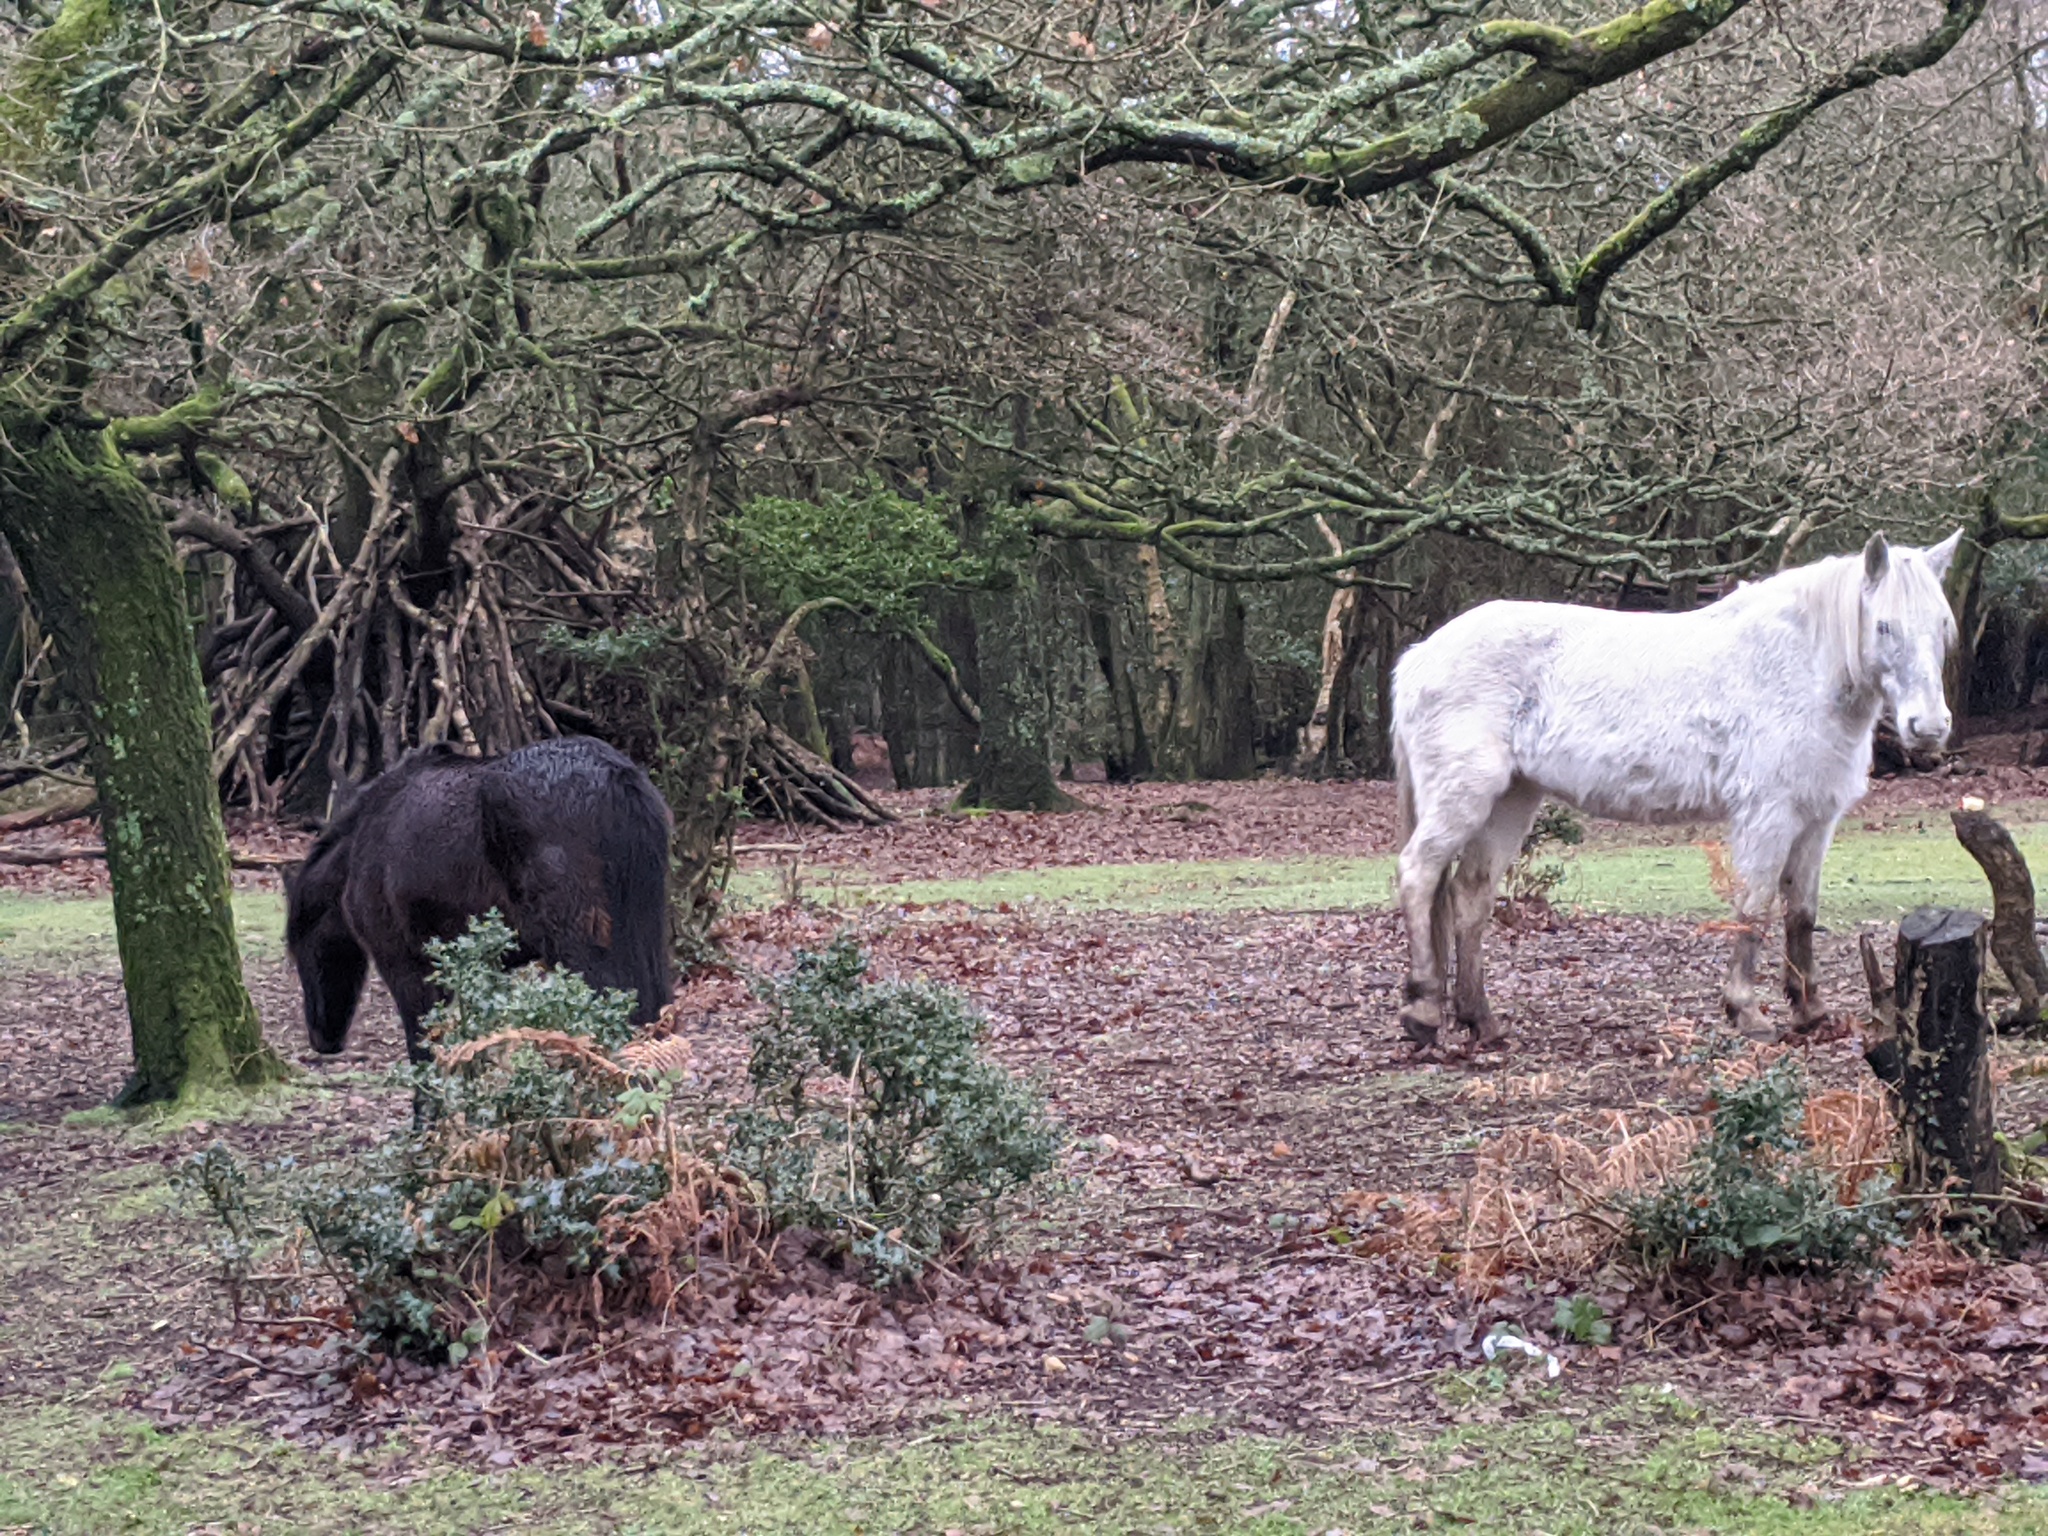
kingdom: Animalia
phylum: Chordata
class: Mammalia
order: Perissodactyla
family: Equidae
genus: Equus
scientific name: Equus caballus
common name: Horse
